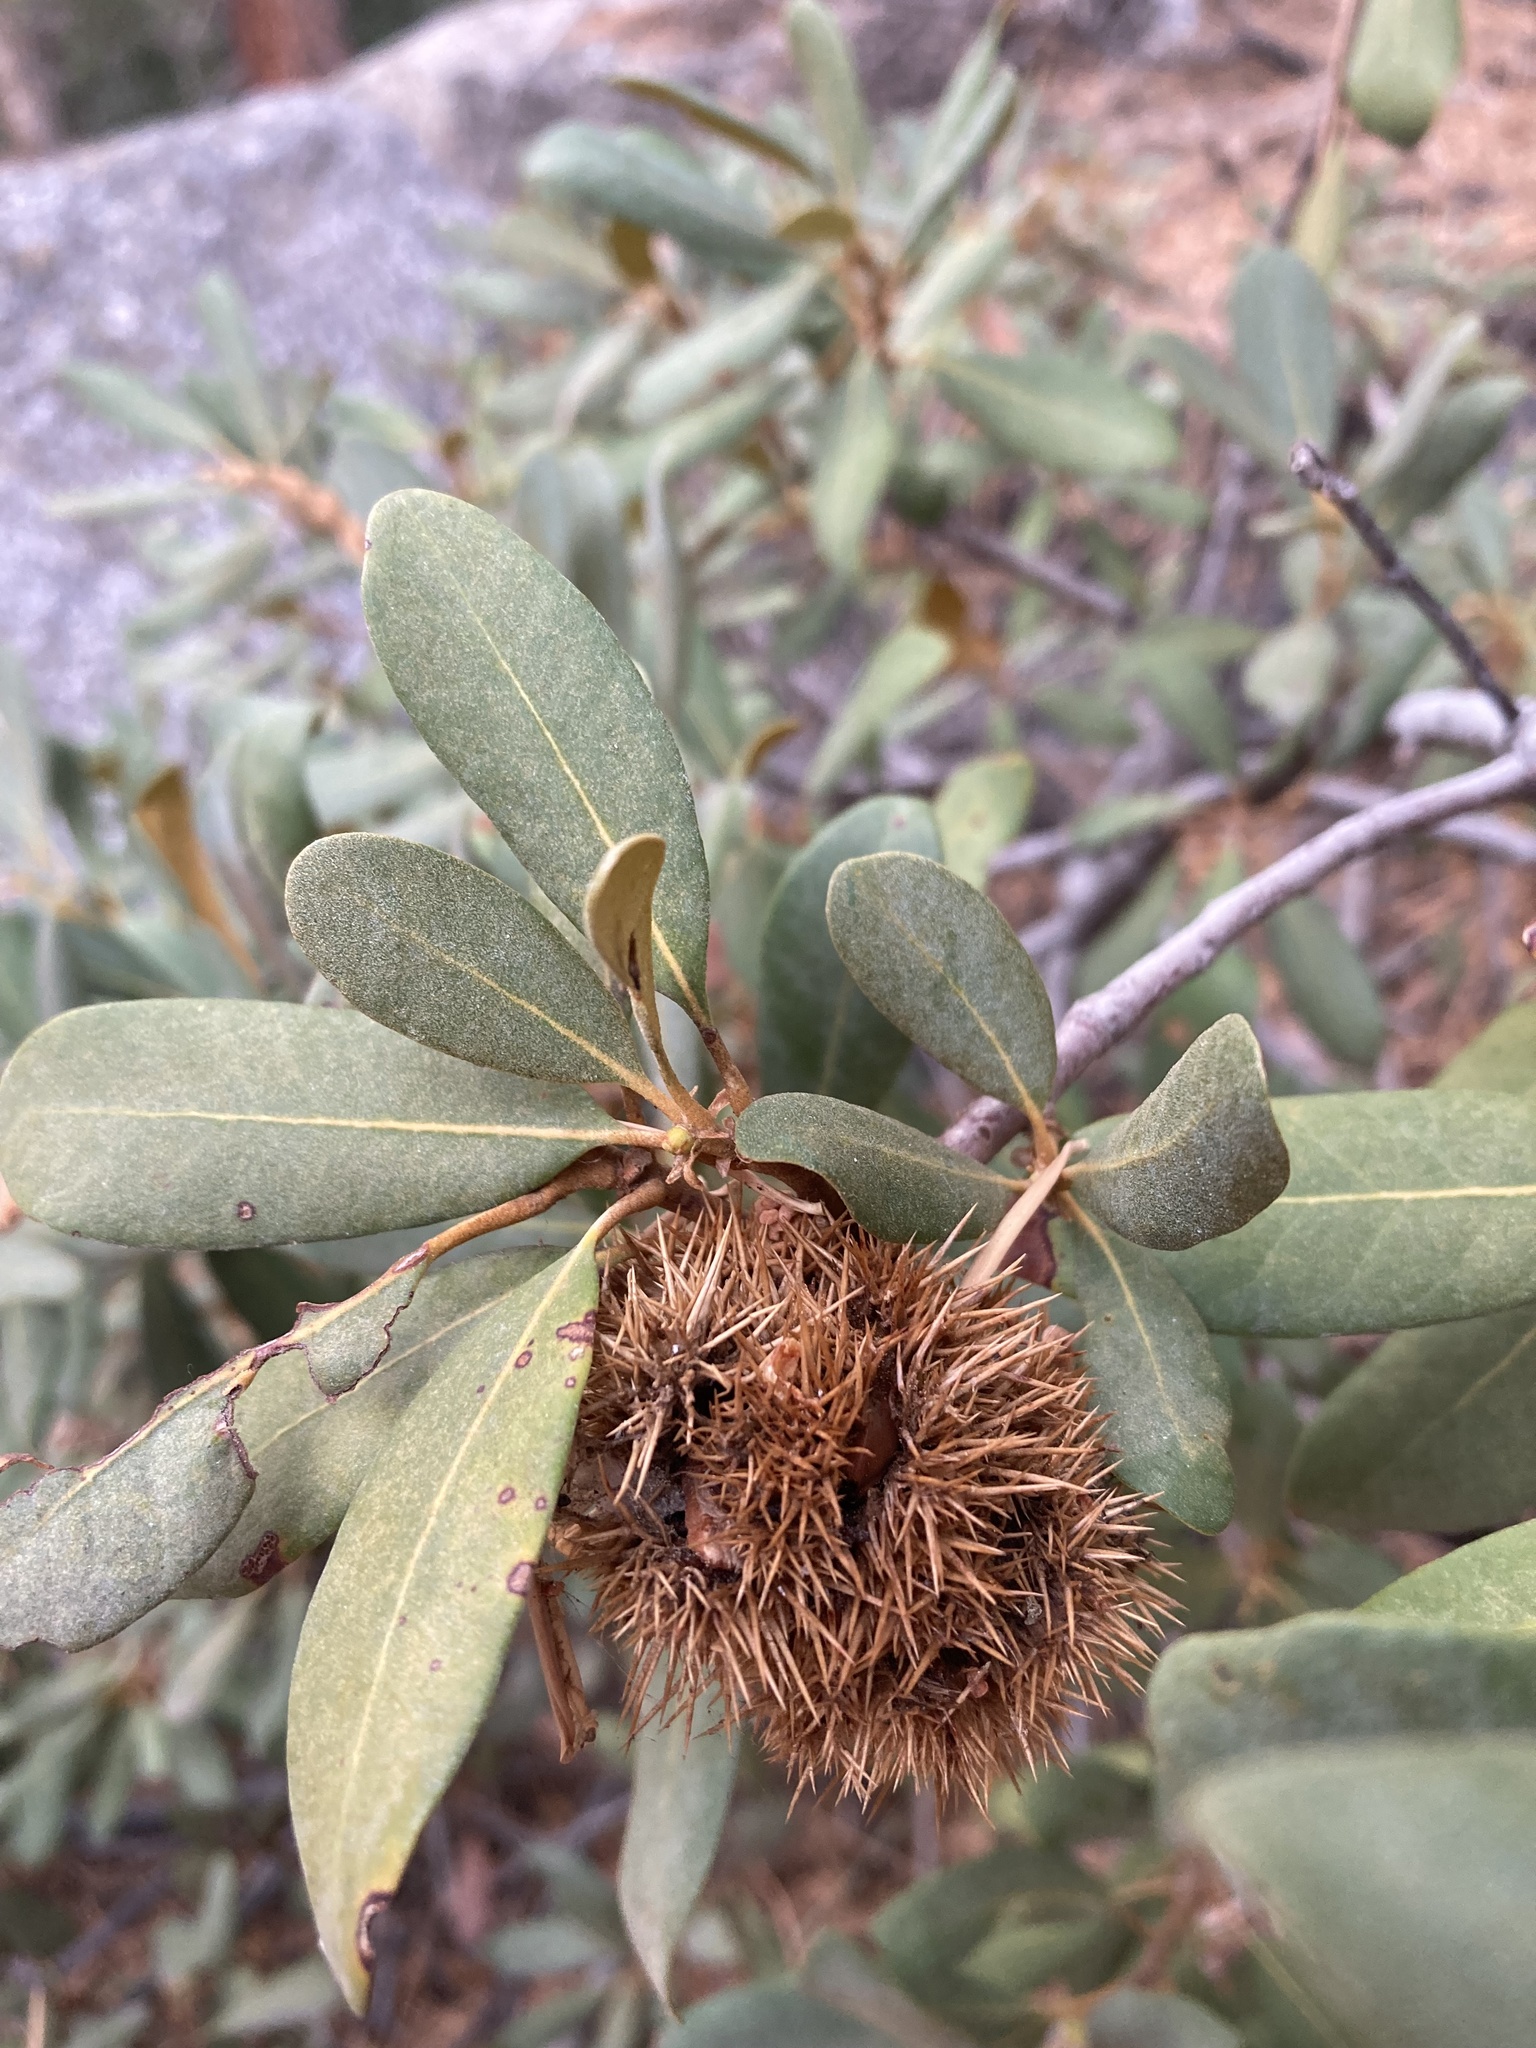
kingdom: Plantae
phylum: Tracheophyta
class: Magnoliopsida
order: Fagales
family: Fagaceae
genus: Chrysolepis
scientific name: Chrysolepis sempervirens
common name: Bush chinquapin
